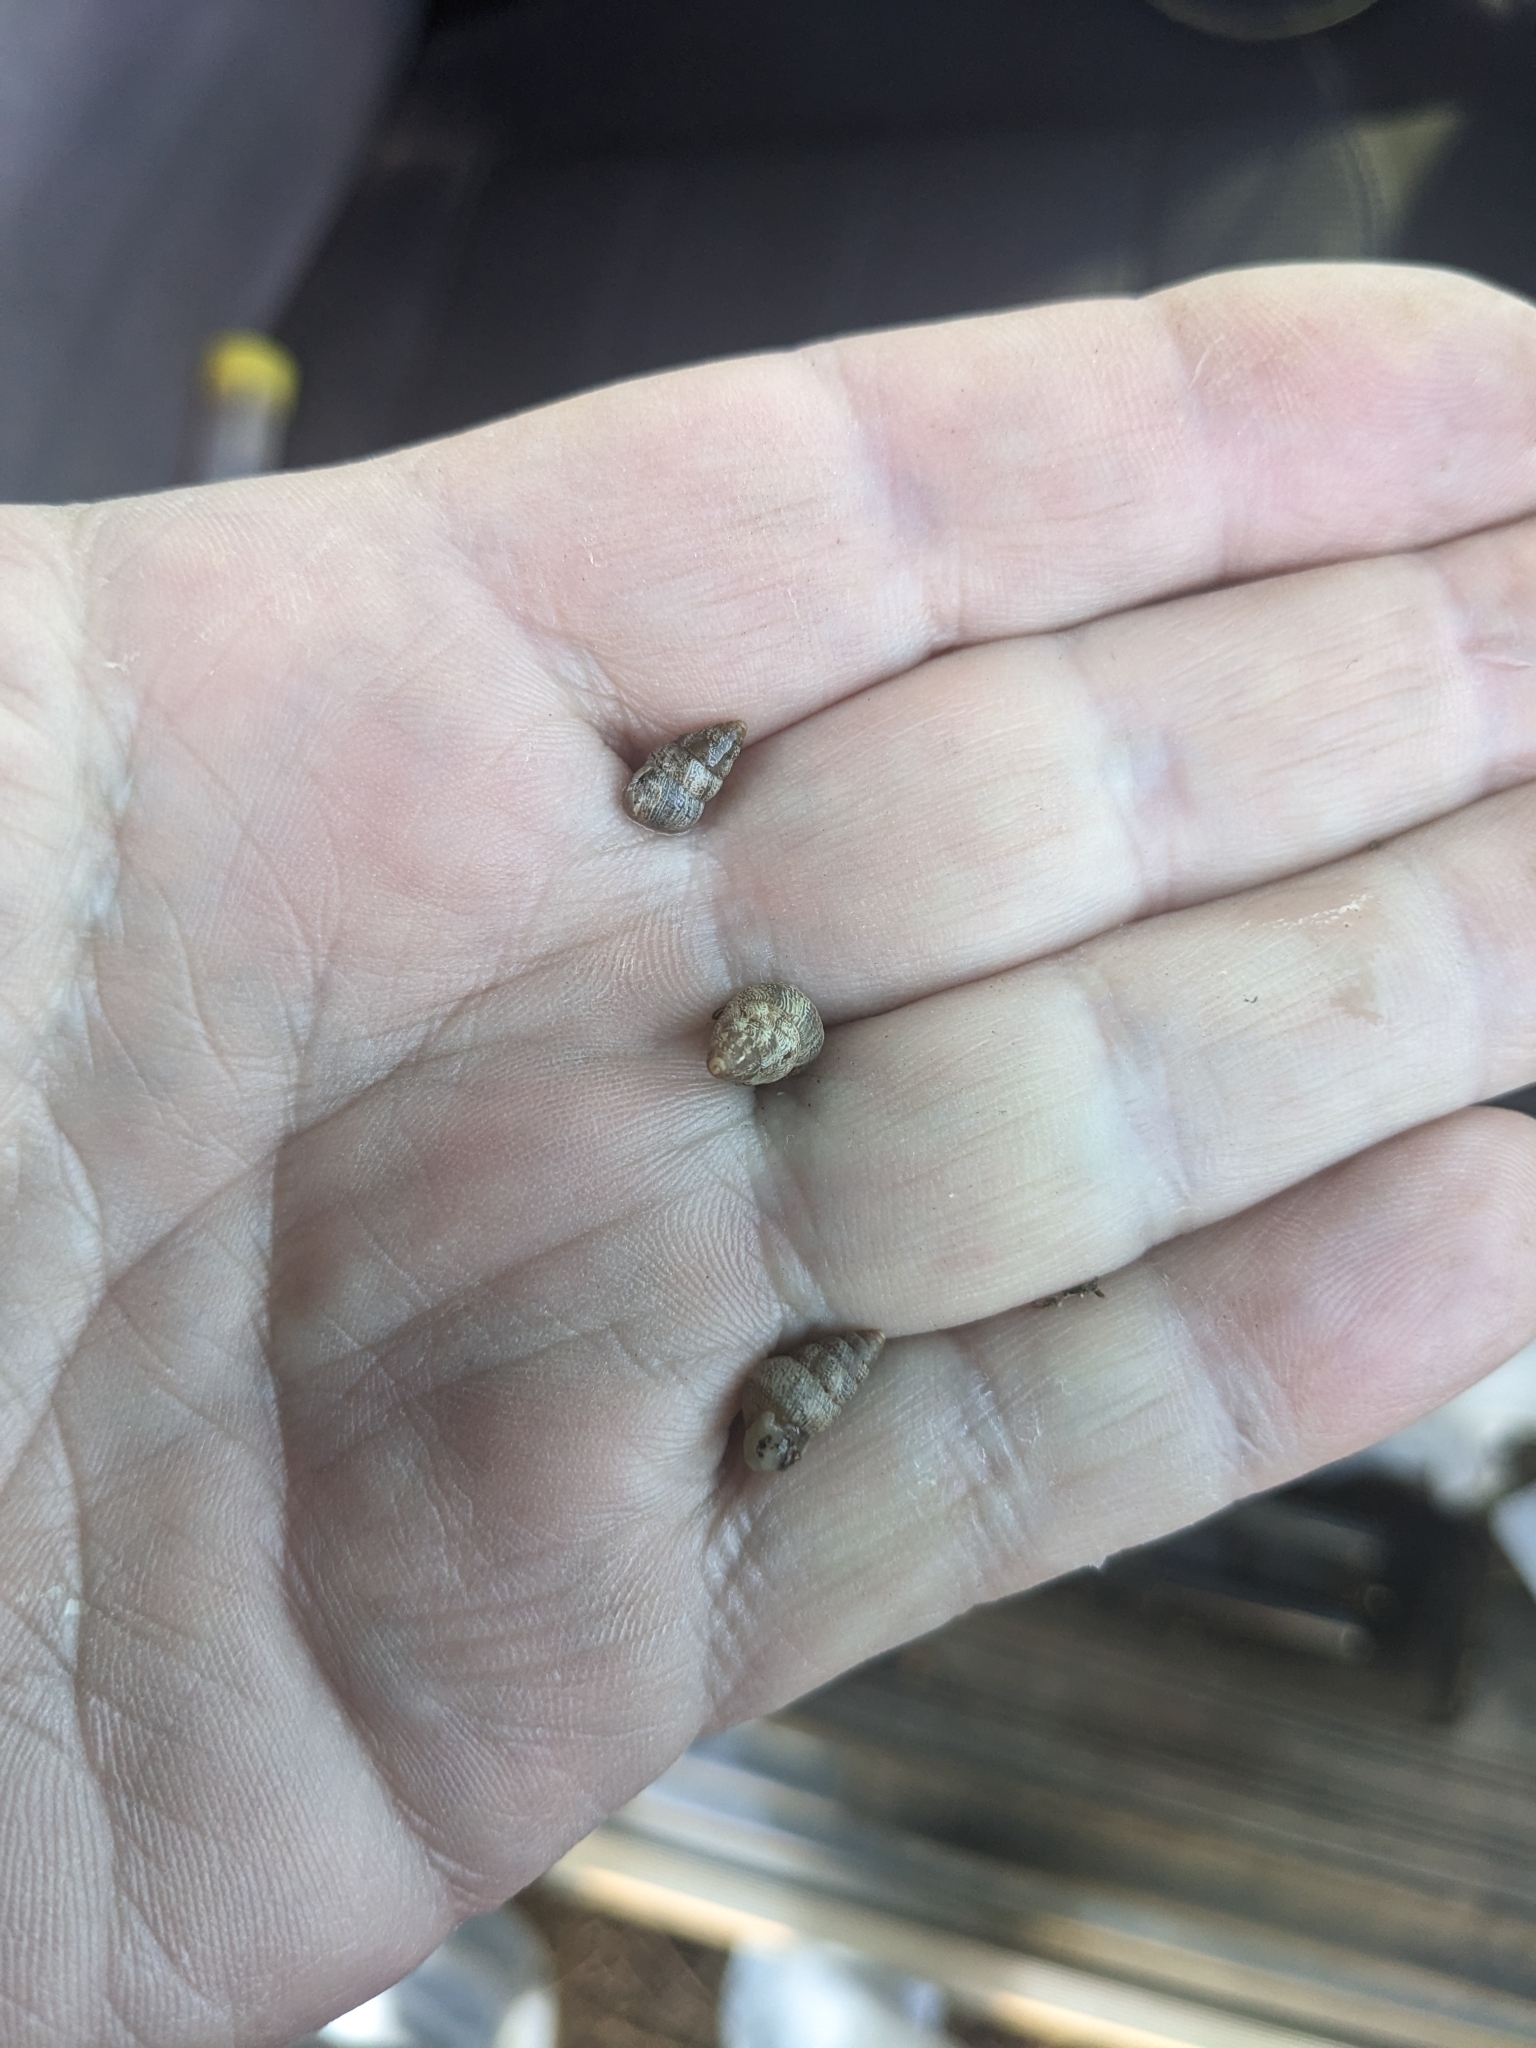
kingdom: Animalia
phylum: Mollusca
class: Gastropoda
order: Stylommatophora
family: Geomitridae
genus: Cochlicella
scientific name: Cochlicella barbara
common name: Potbellied helicellid
